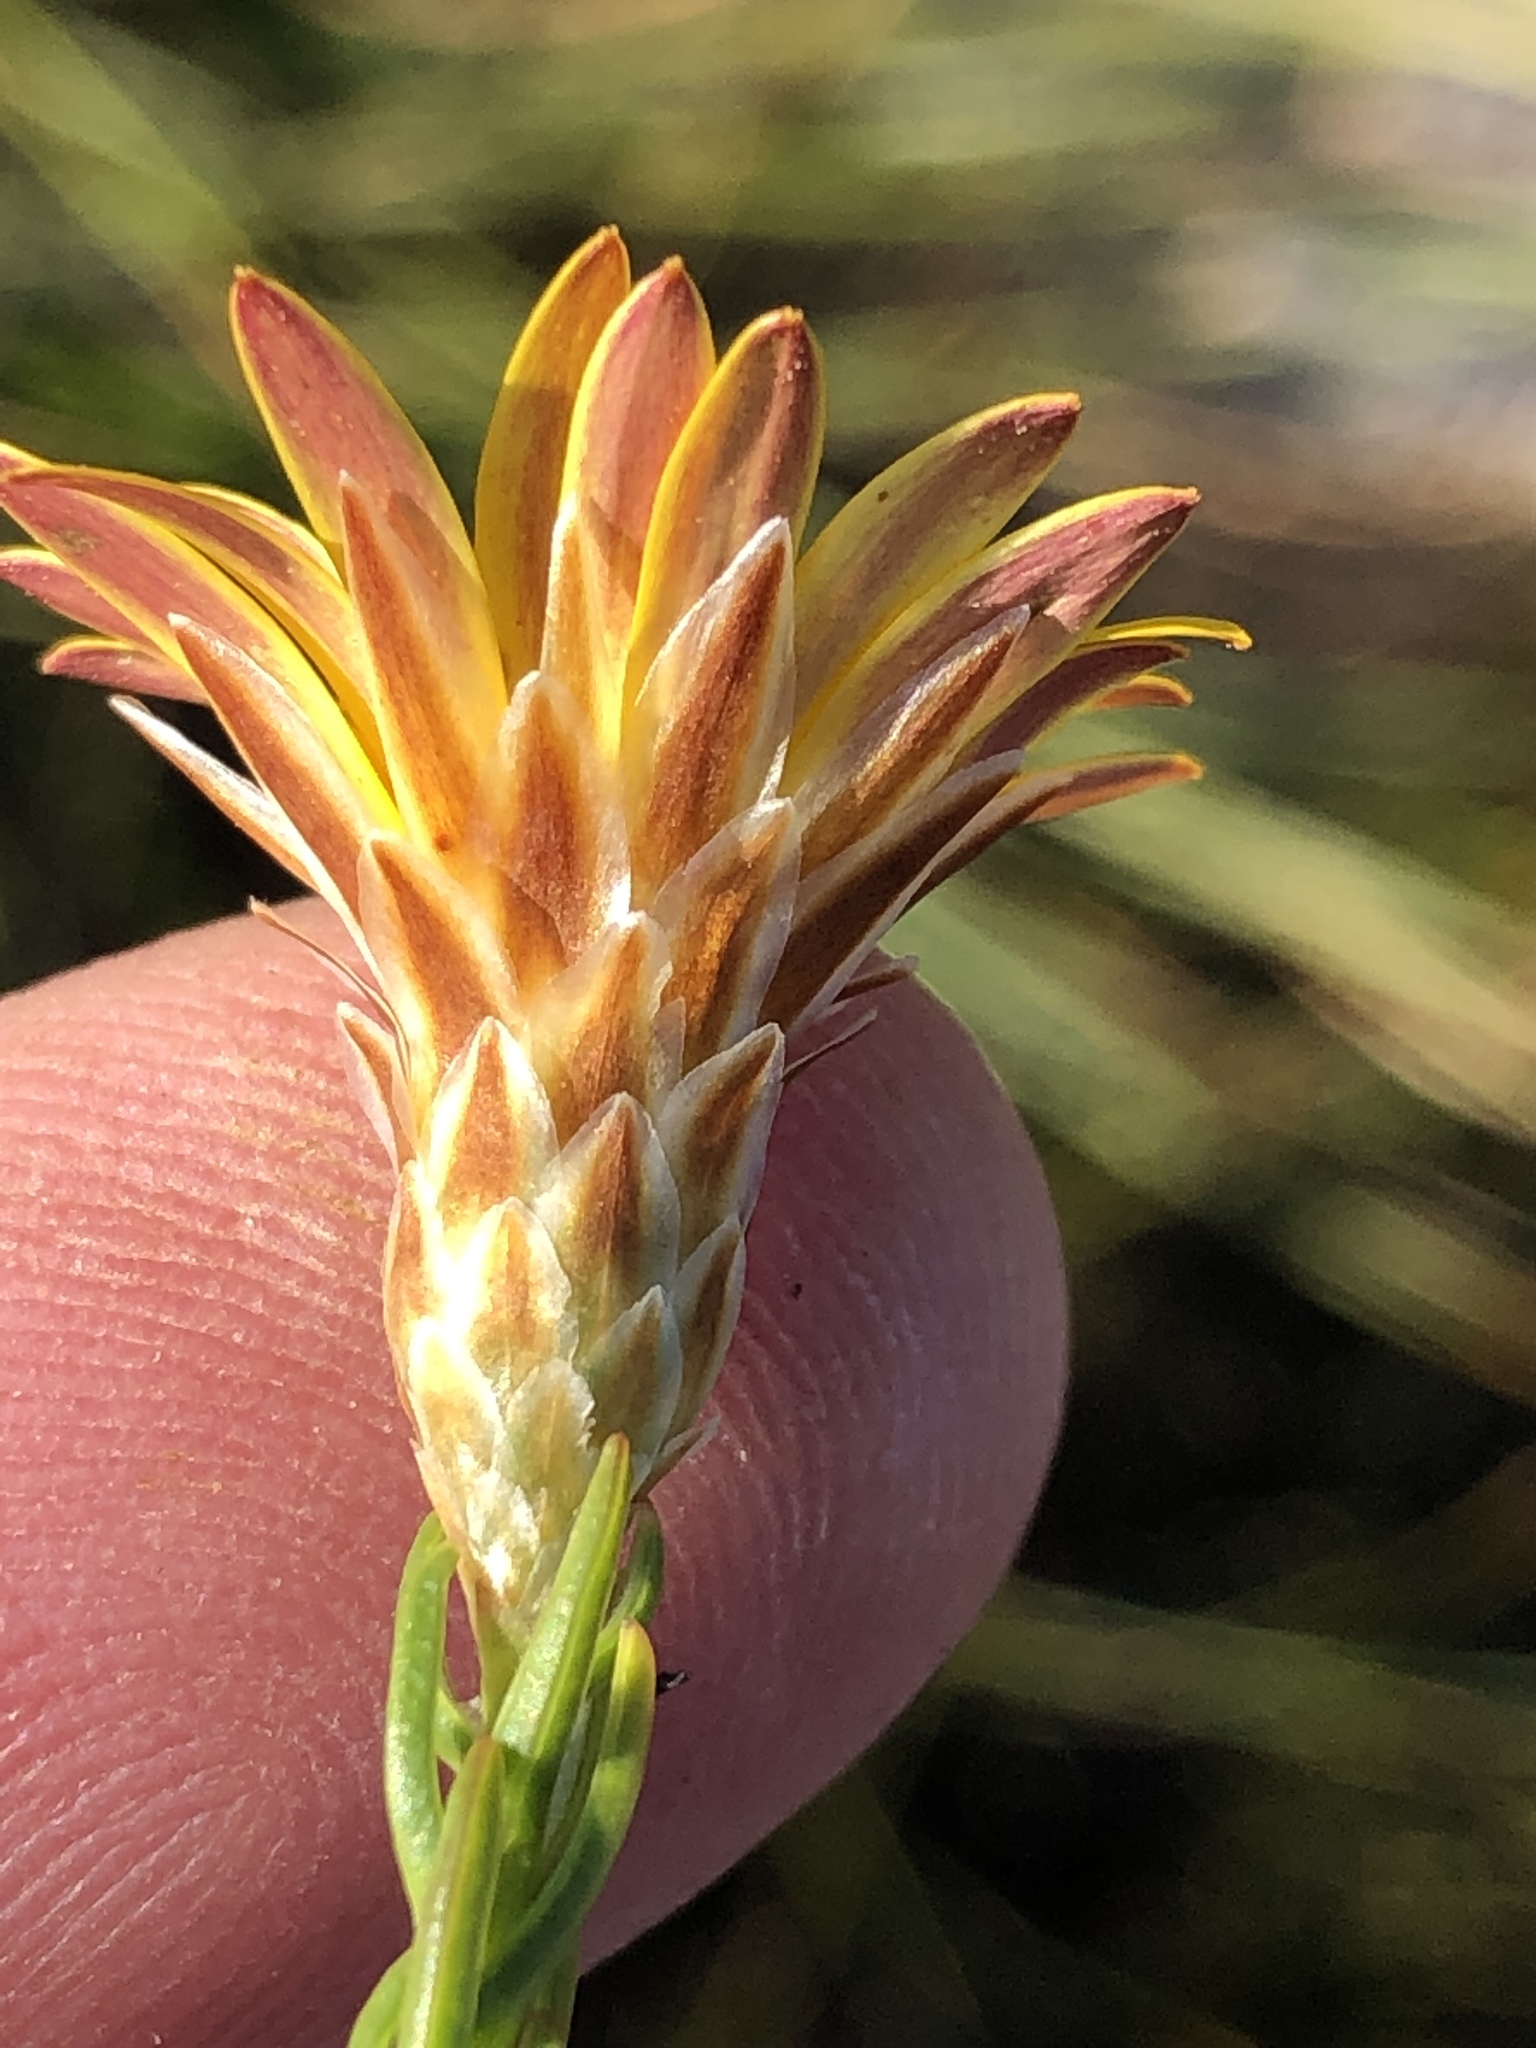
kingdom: Plantae
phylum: Tracheophyta
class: Magnoliopsida
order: Asterales
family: Asteraceae
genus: Oedera
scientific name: Oedera decussata
